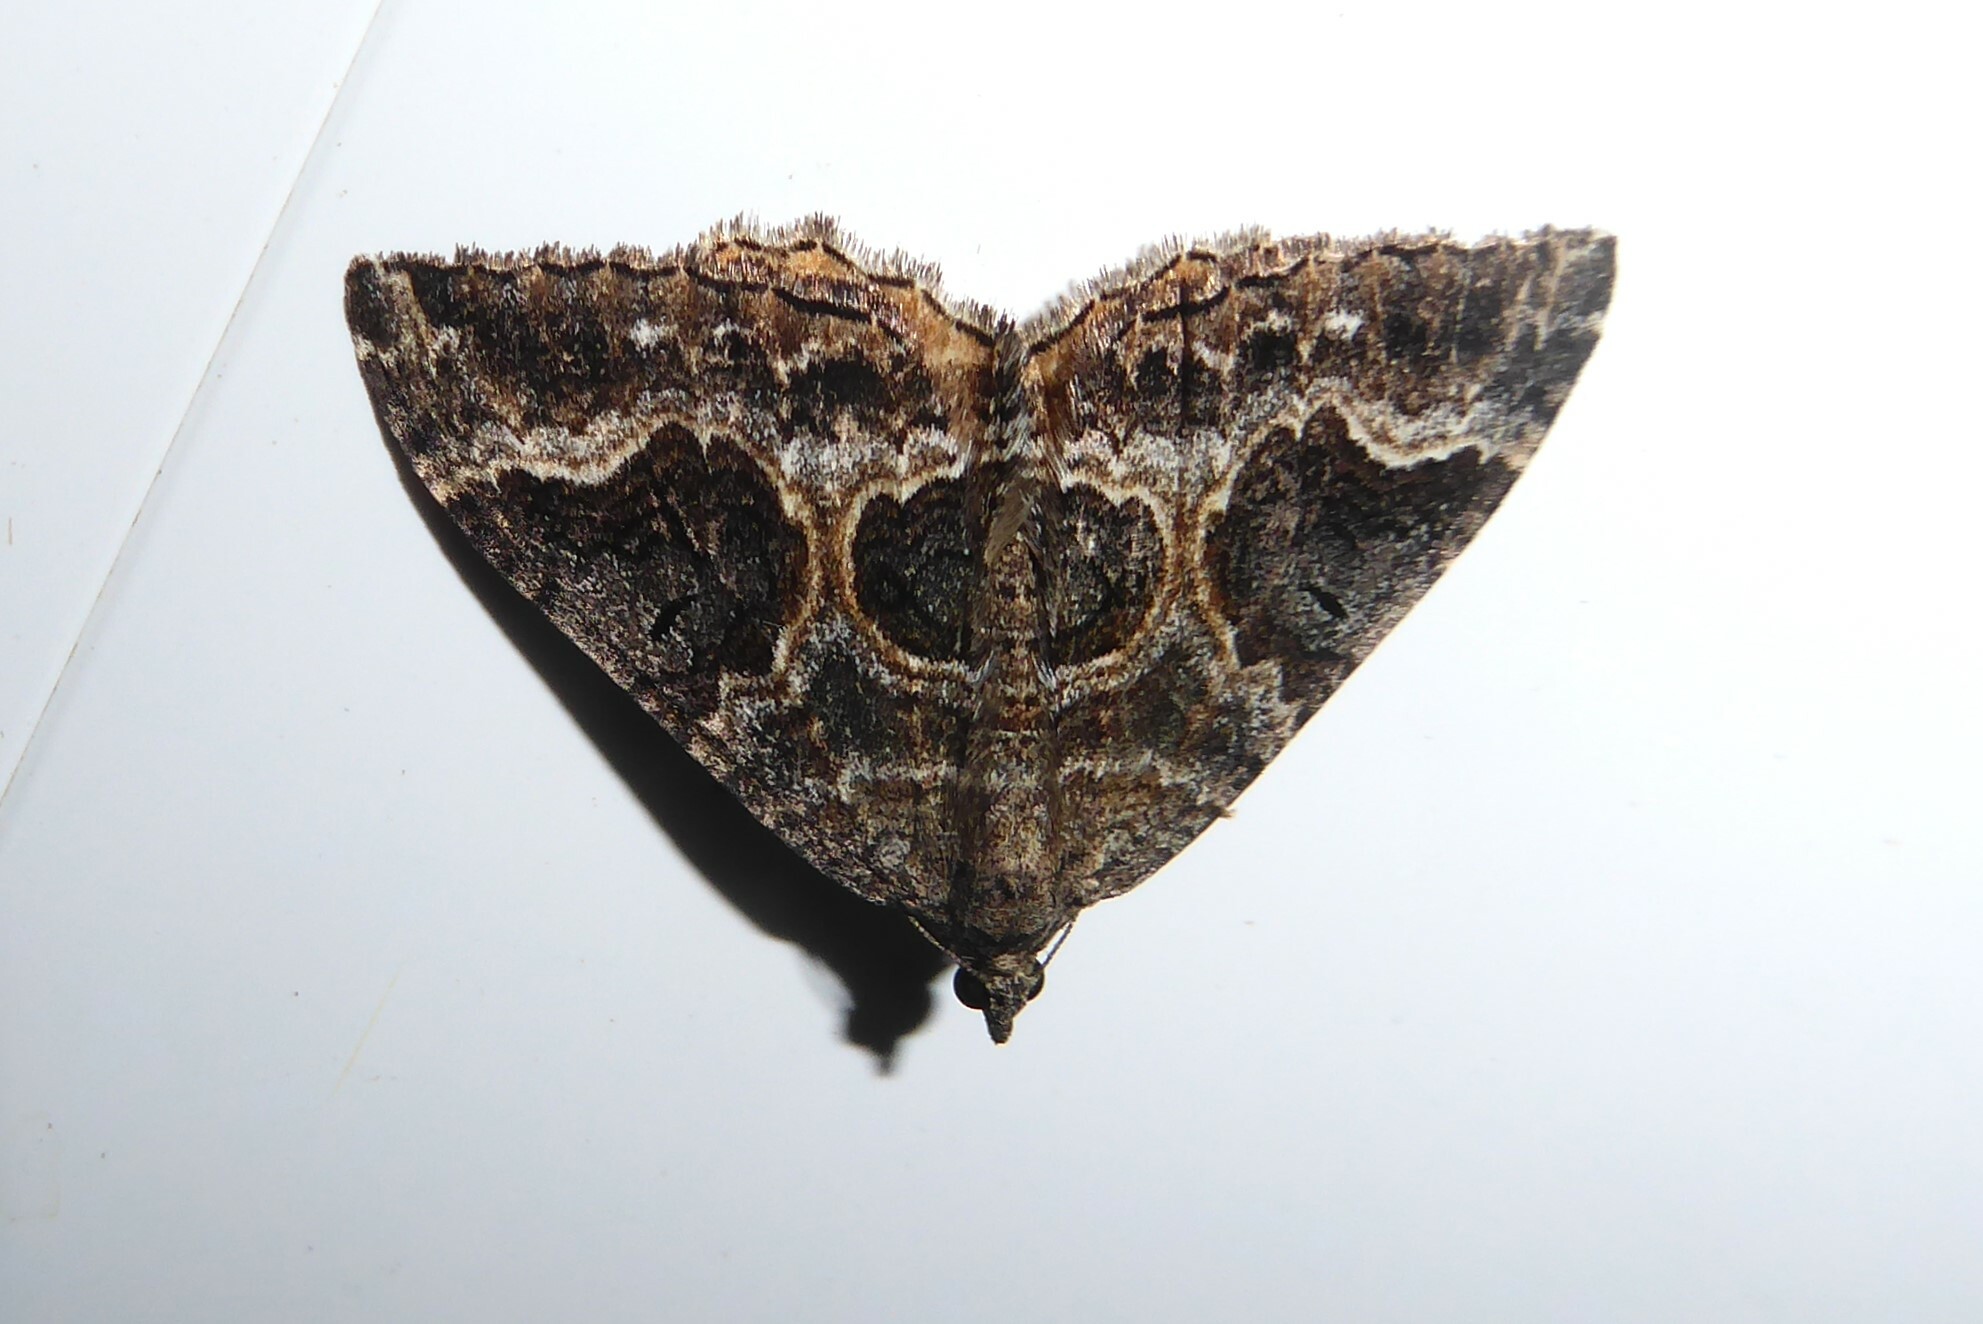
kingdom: Animalia
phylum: Arthropoda
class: Insecta
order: Lepidoptera
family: Geometridae
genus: Hydriomena
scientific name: Hydriomena deltoidata
